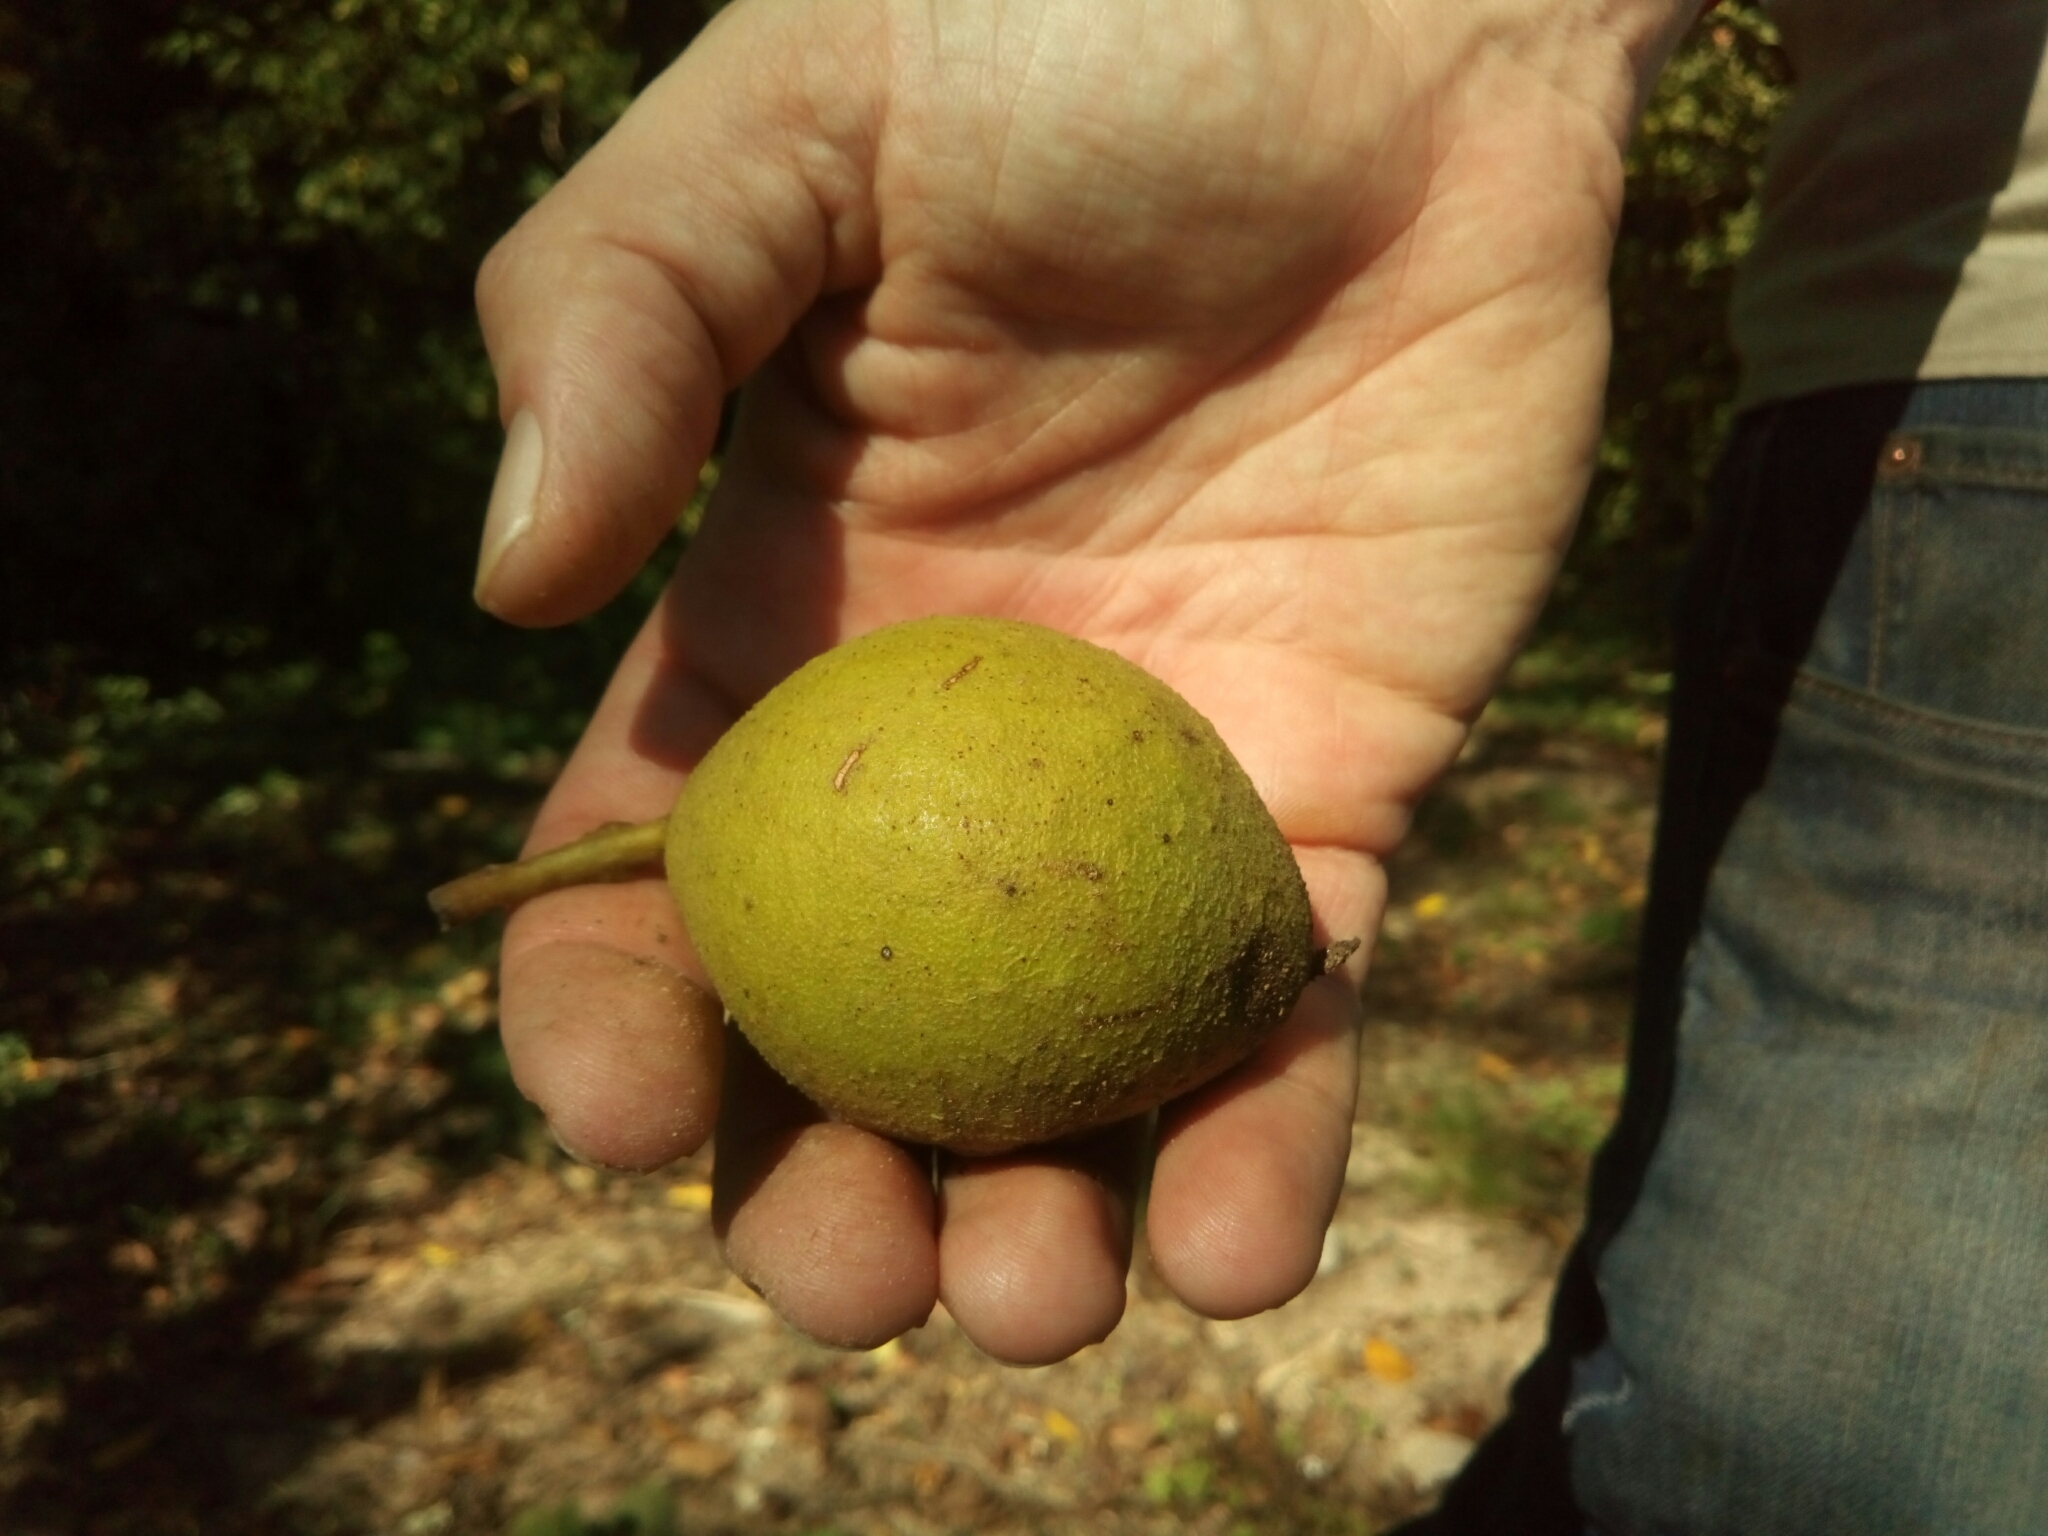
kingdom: Plantae
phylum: Tracheophyta
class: Magnoliopsida
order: Fagales
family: Juglandaceae
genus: Juglans
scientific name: Juglans nigra
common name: Black walnut
